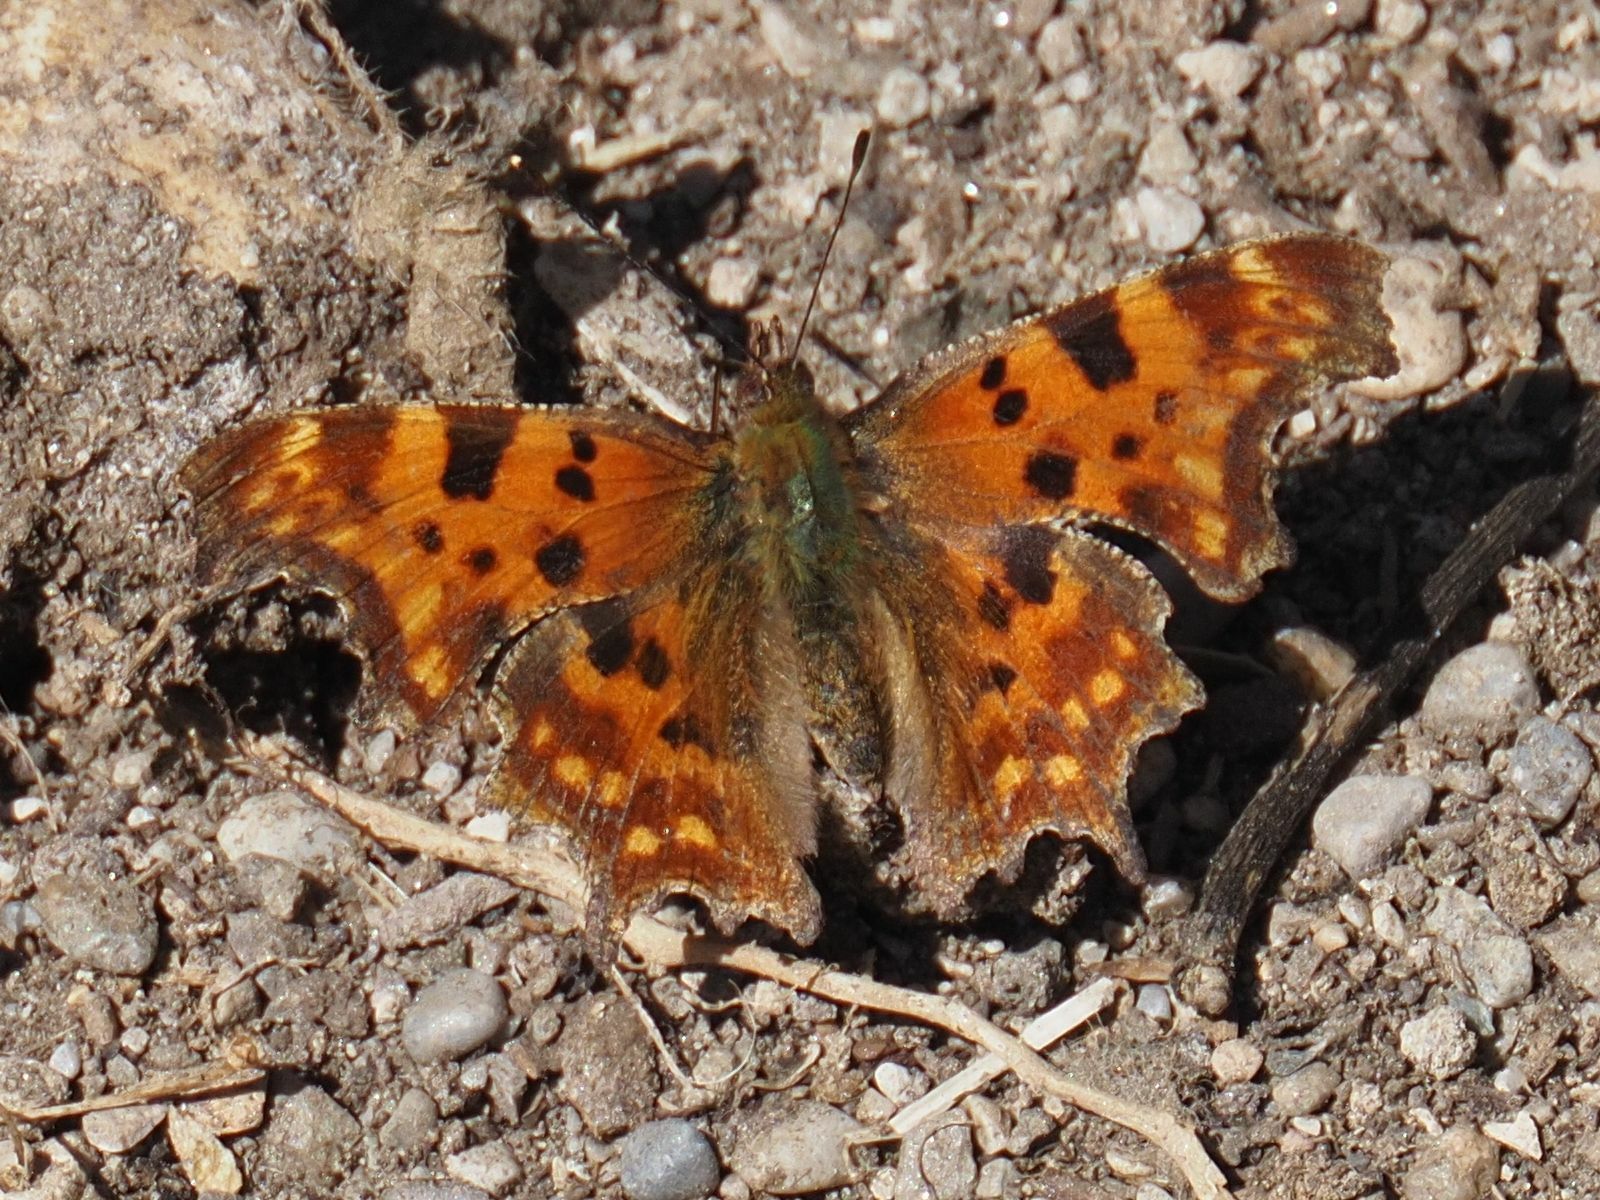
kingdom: Animalia
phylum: Arthropoda
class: Insecta
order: Lepidoptera
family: Nymphalidae
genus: Polygonia
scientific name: Polygonia c-album
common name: Comma
